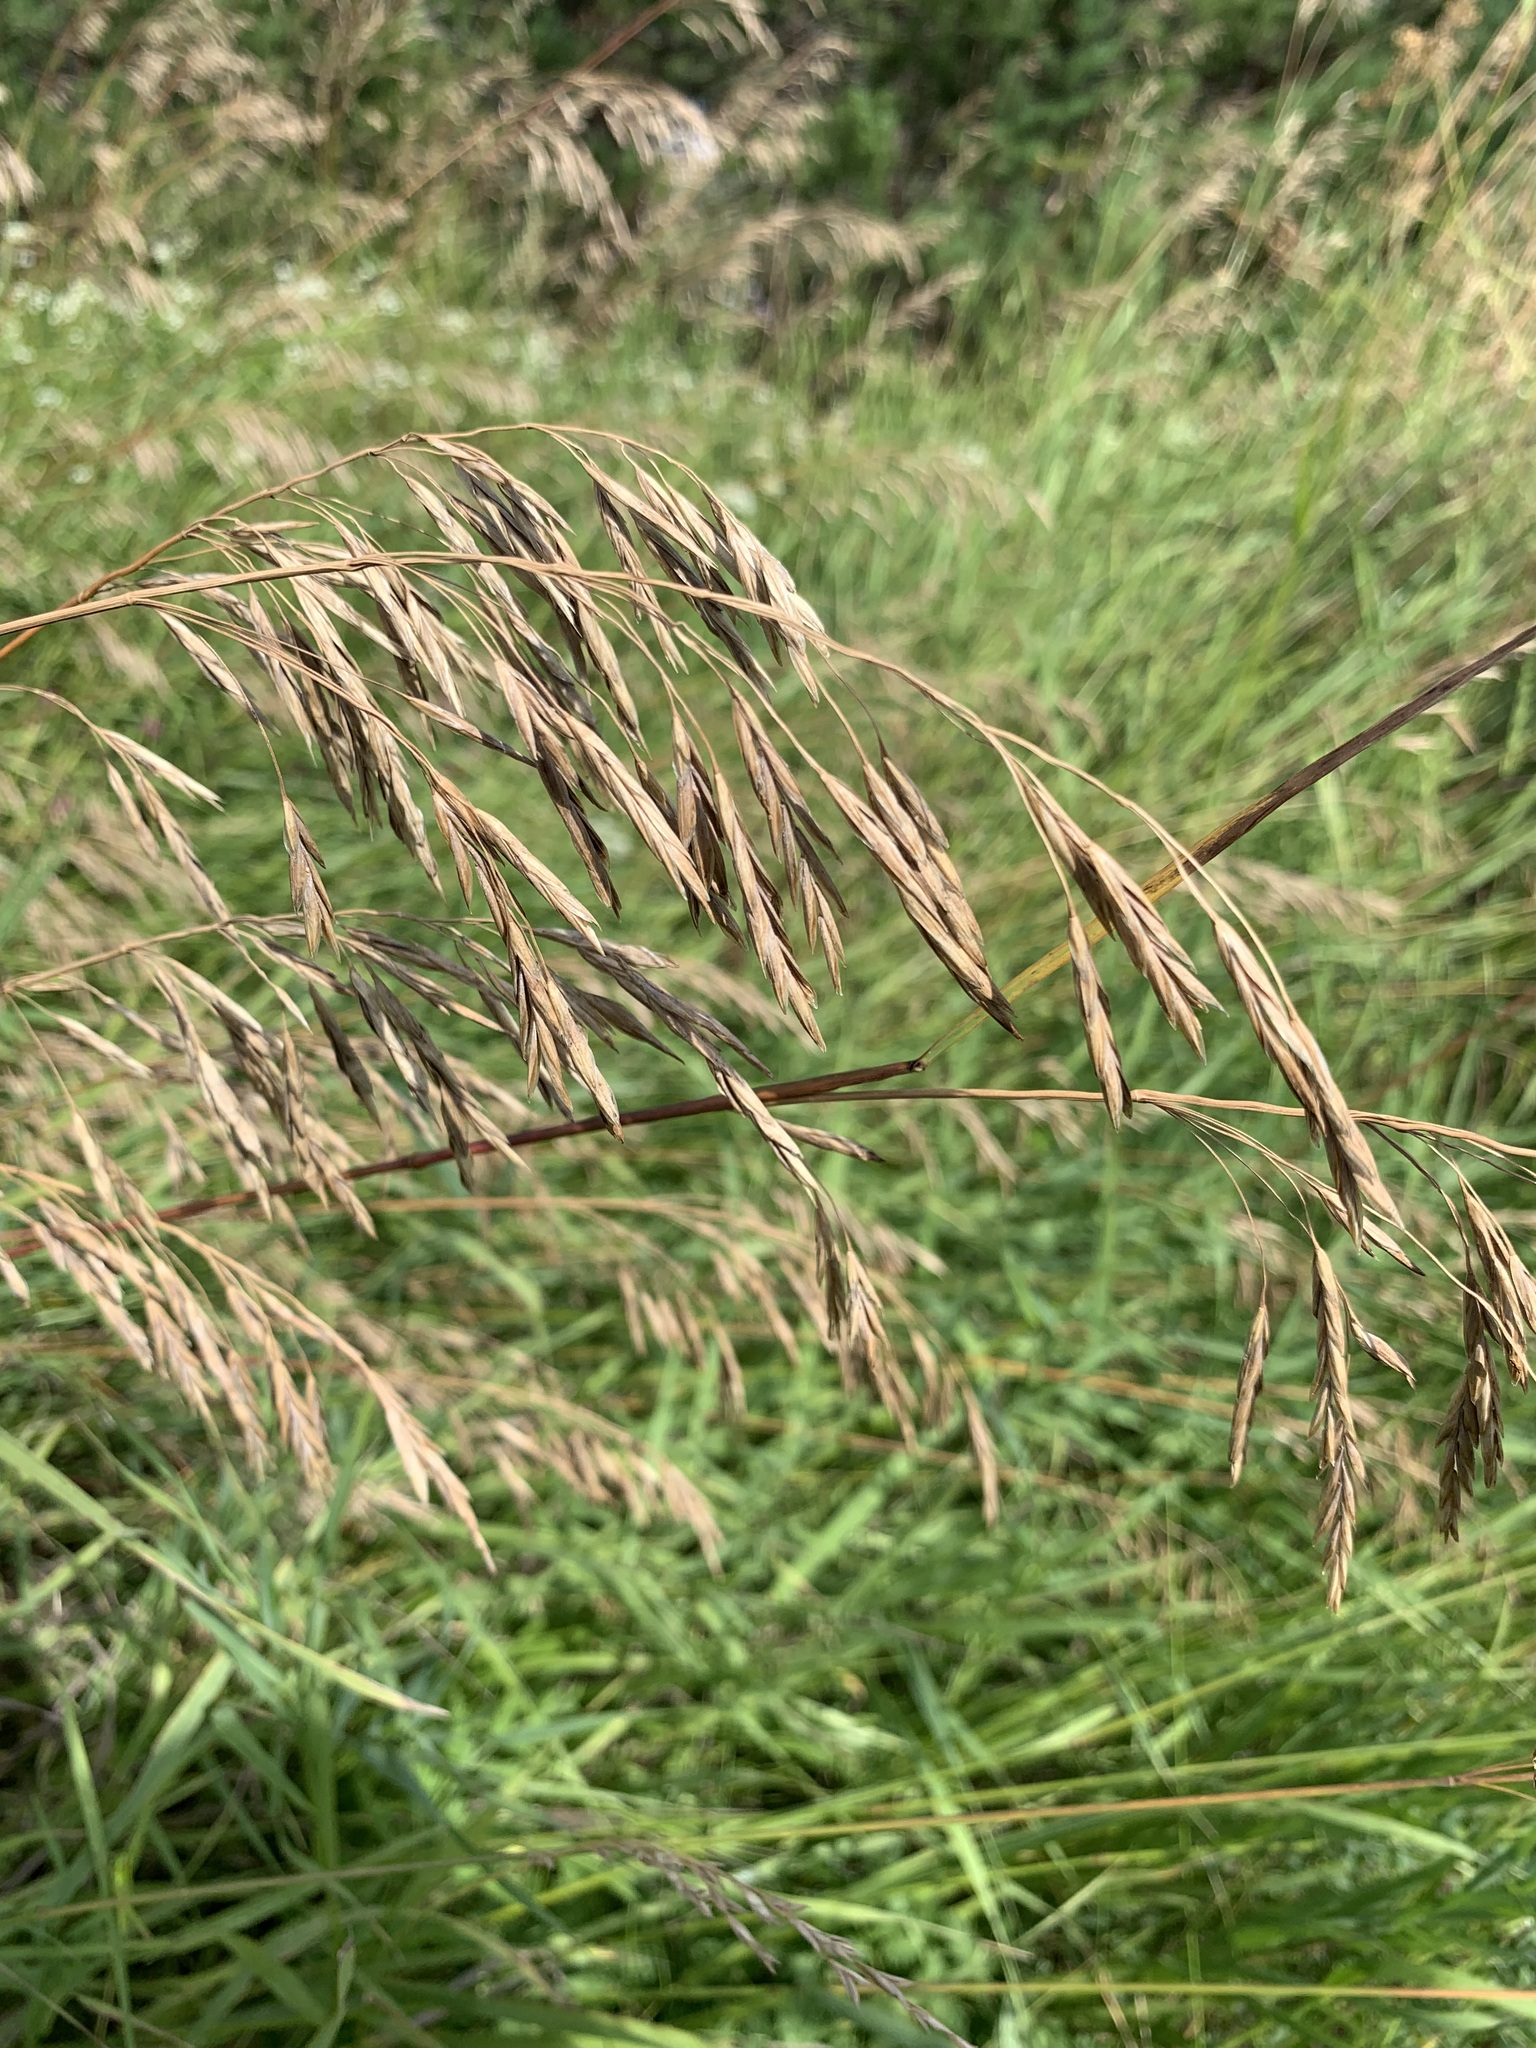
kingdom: Plantae
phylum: Tracheophyta
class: Liliopsida
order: Poales
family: Poaceae
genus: Bromus
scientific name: Bromus inermis
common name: Smooth brome
